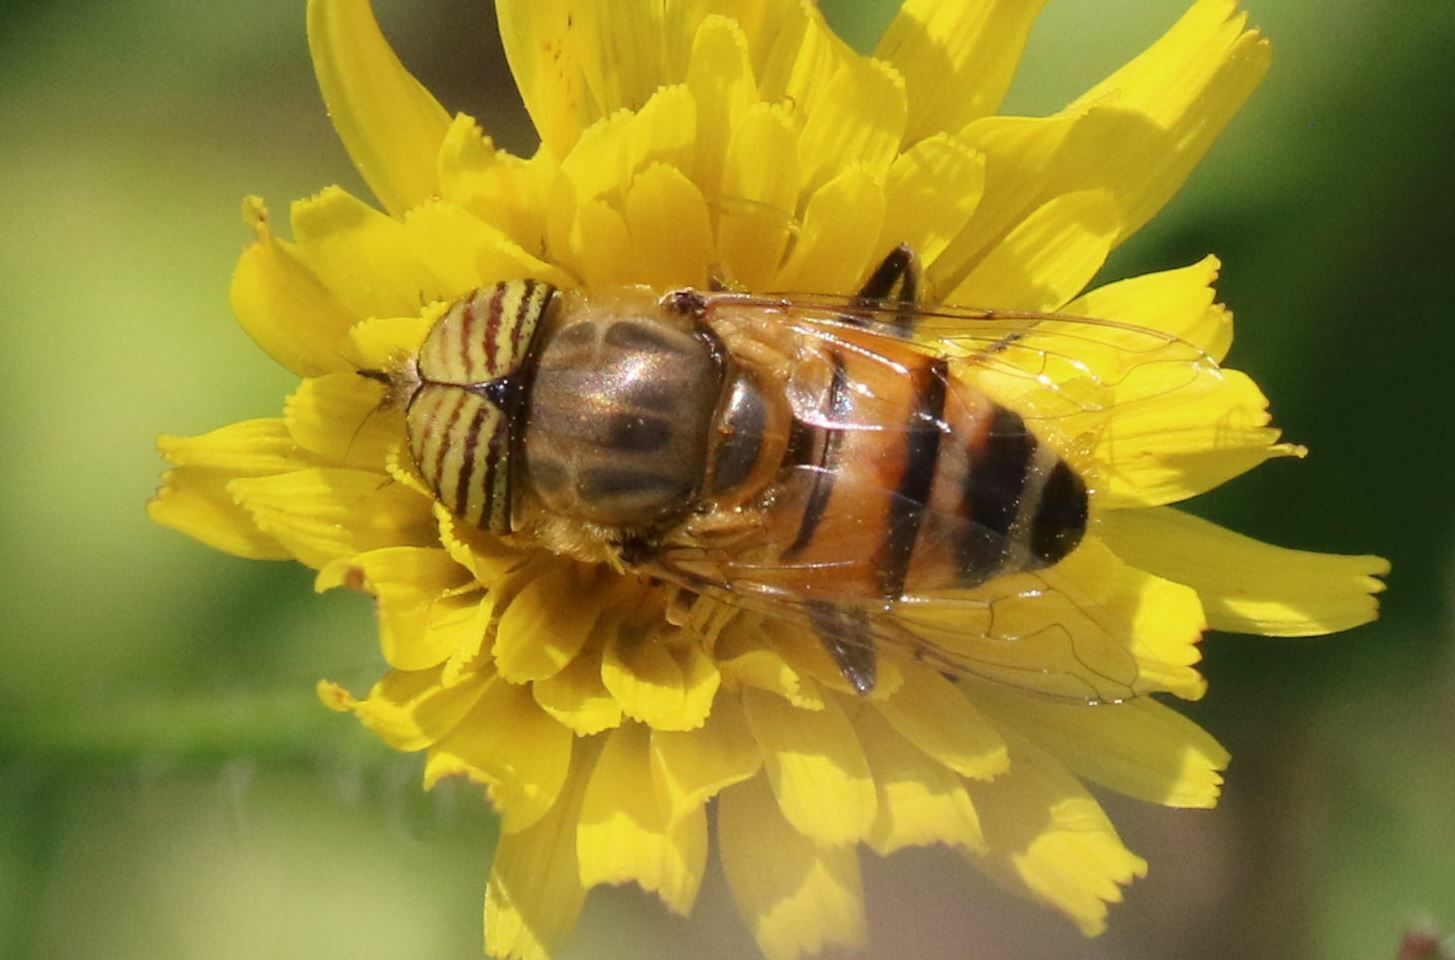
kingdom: Animalia
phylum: Arthropoda
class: Insecta
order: Diptera
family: Syrphidae
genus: Eristalinus
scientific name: Eristalinus taeniops
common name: Syrphid fly
